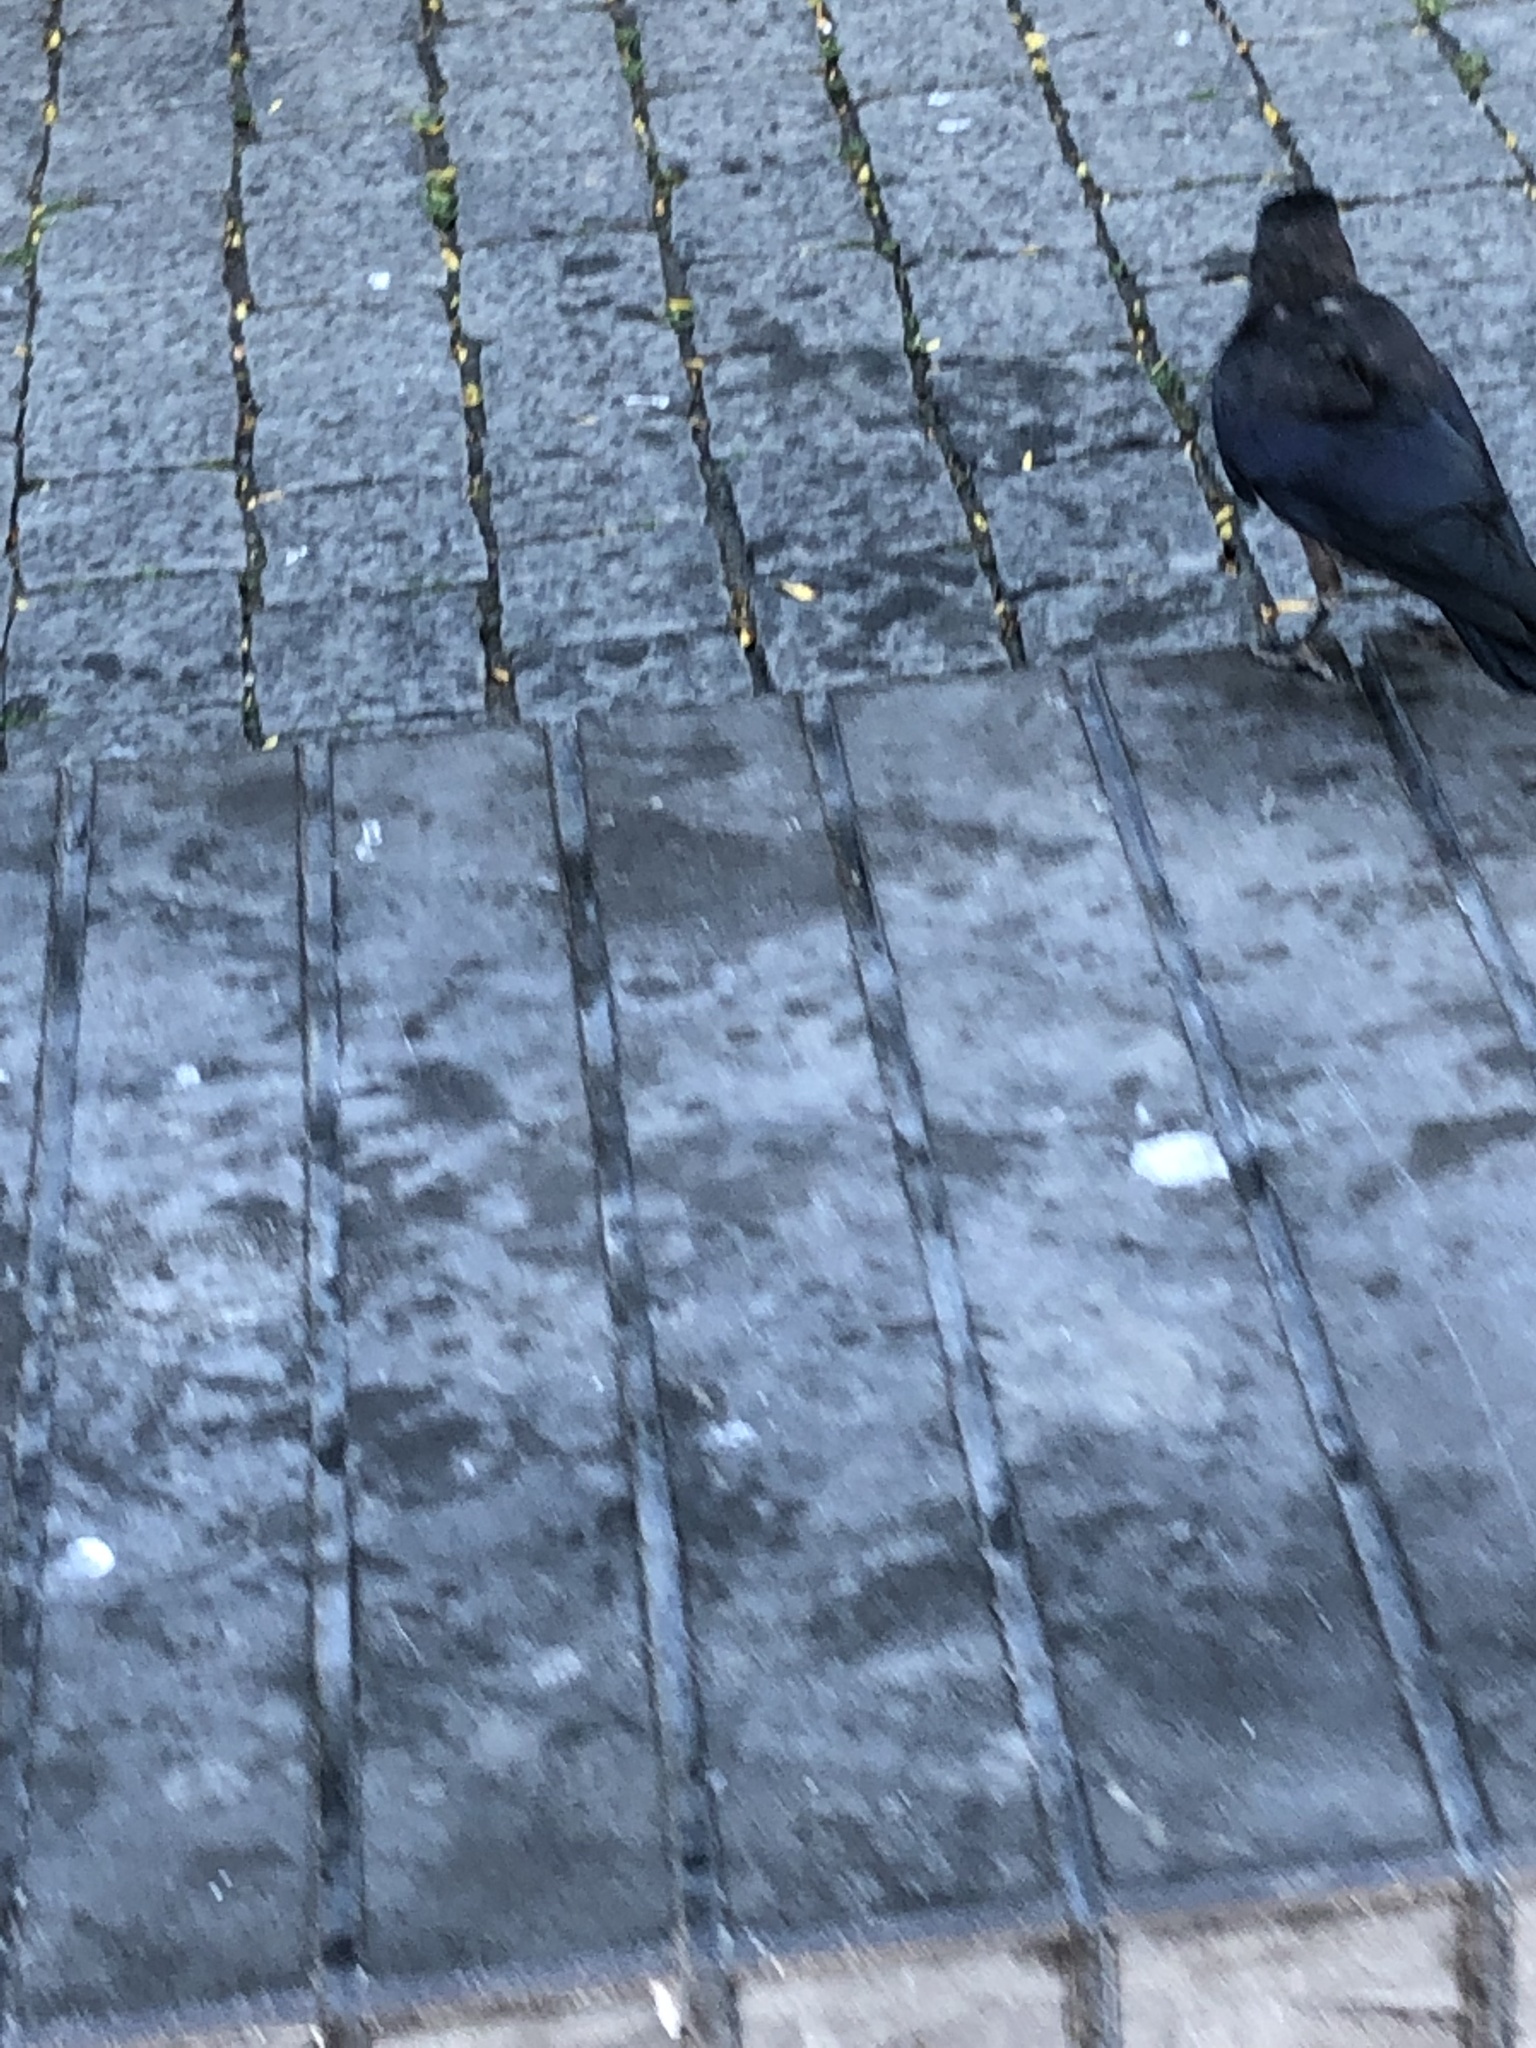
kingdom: Animalia
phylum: Chordata
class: Aves
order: Passeriformes
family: Corvidae
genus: Coloeus
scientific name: Coloeus monedula
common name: Western jackdaw
